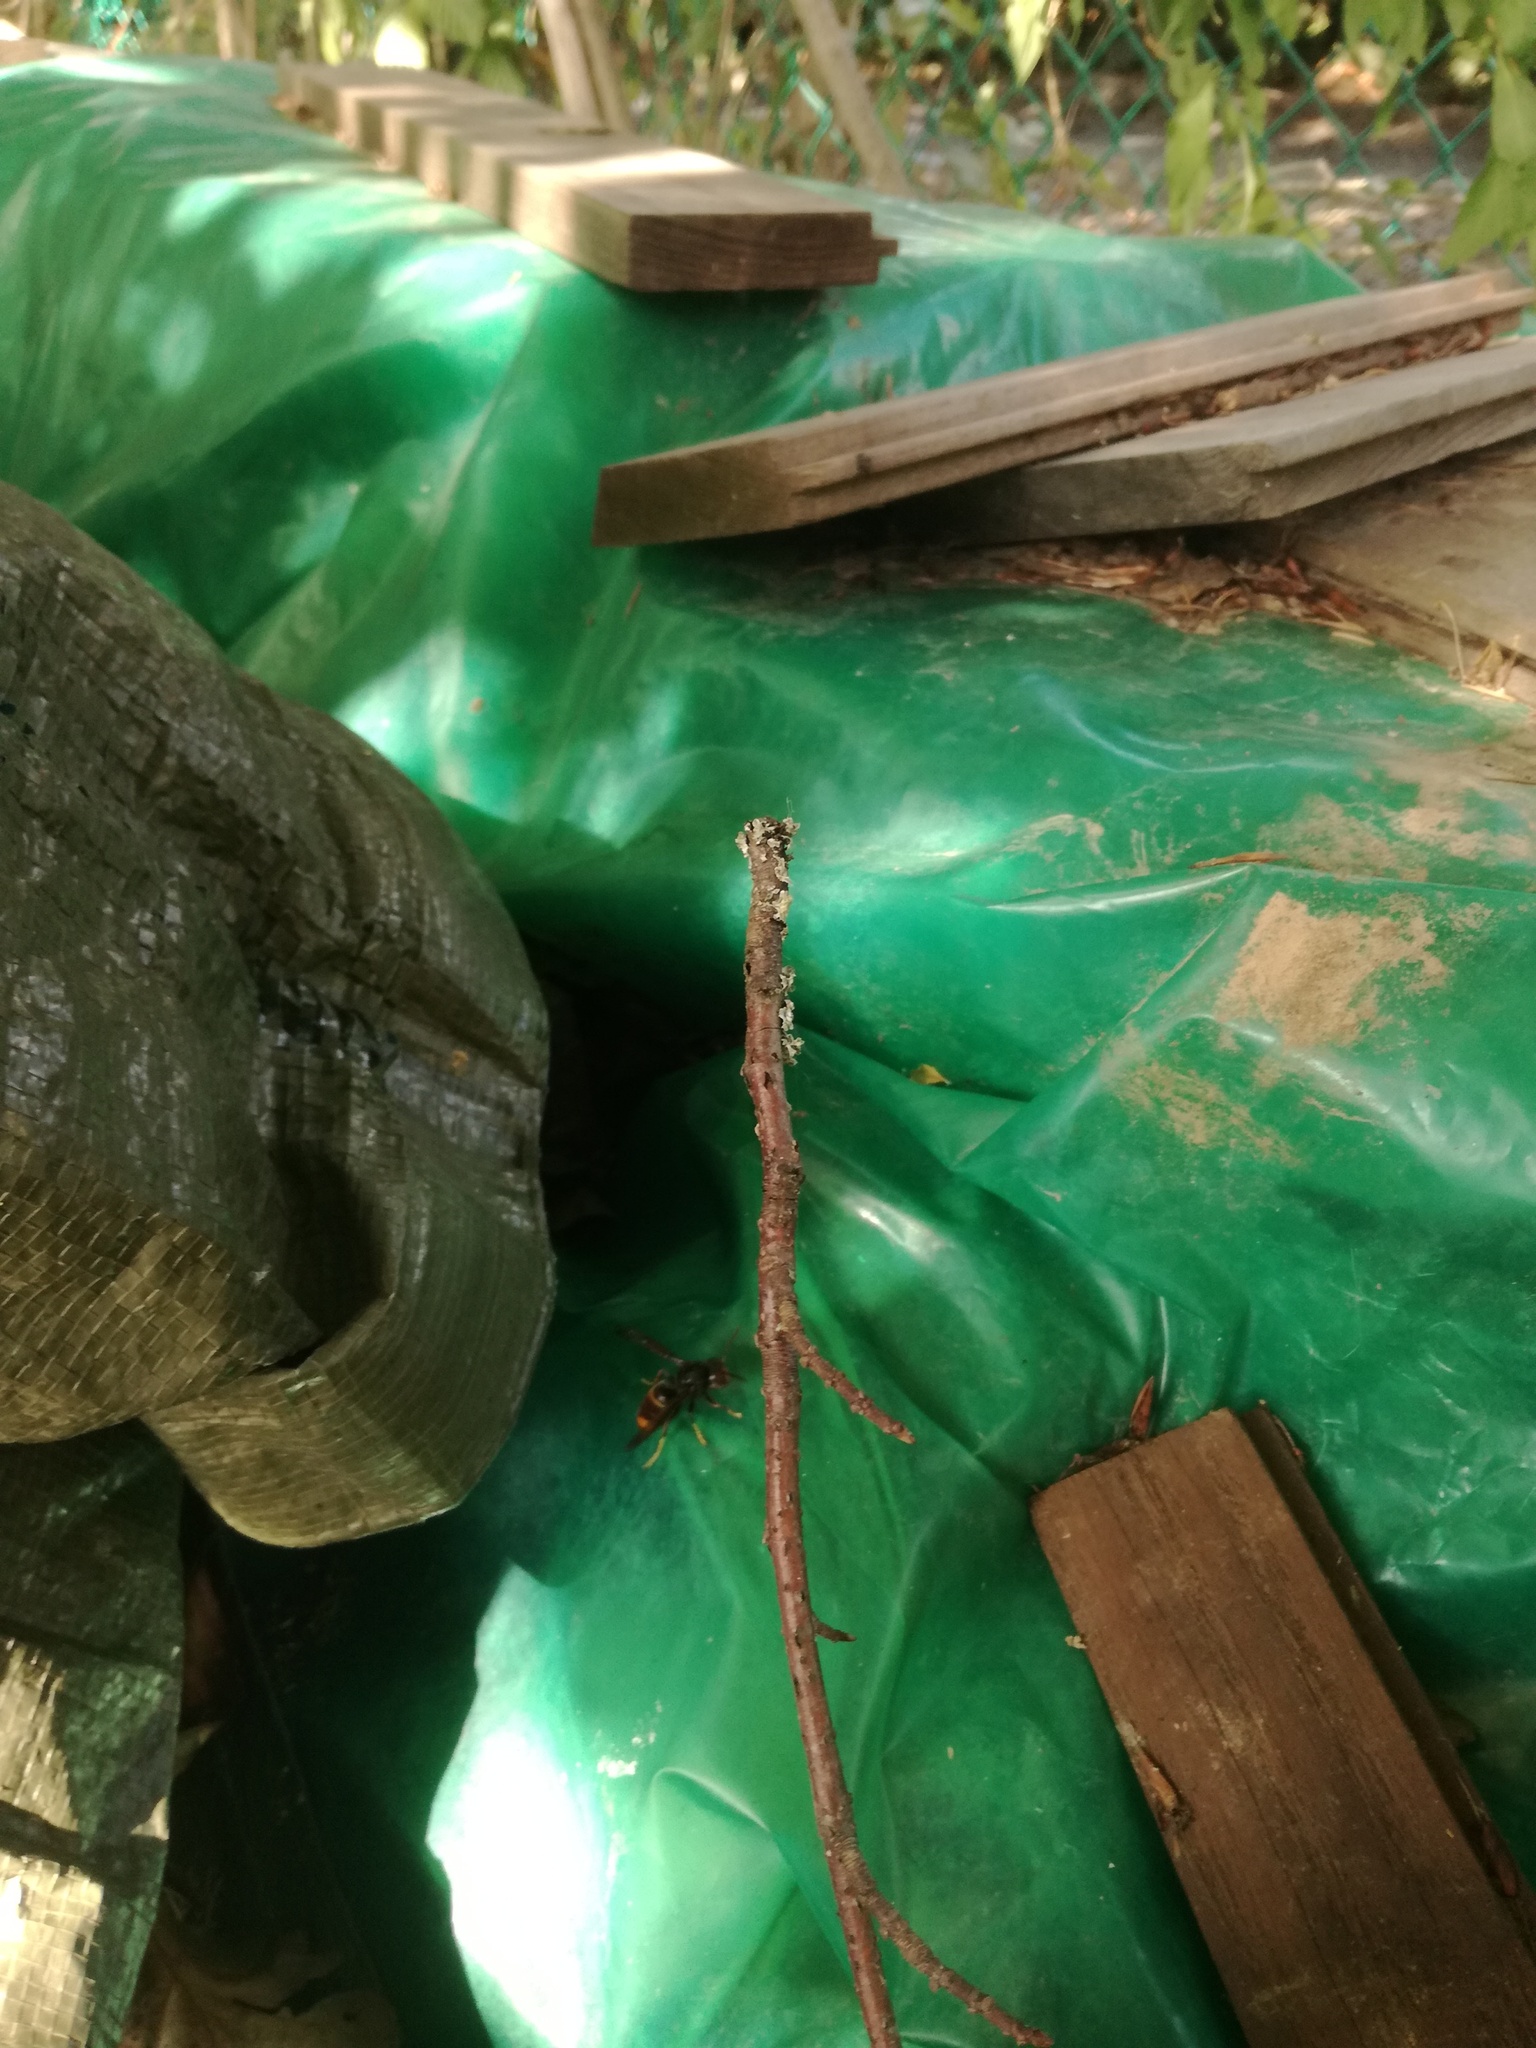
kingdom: Animalia
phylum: Arthropoda
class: Insecta
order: Hymenoptera
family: Vespidae
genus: Vespa
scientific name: Vespa velutina
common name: Asian hornet
